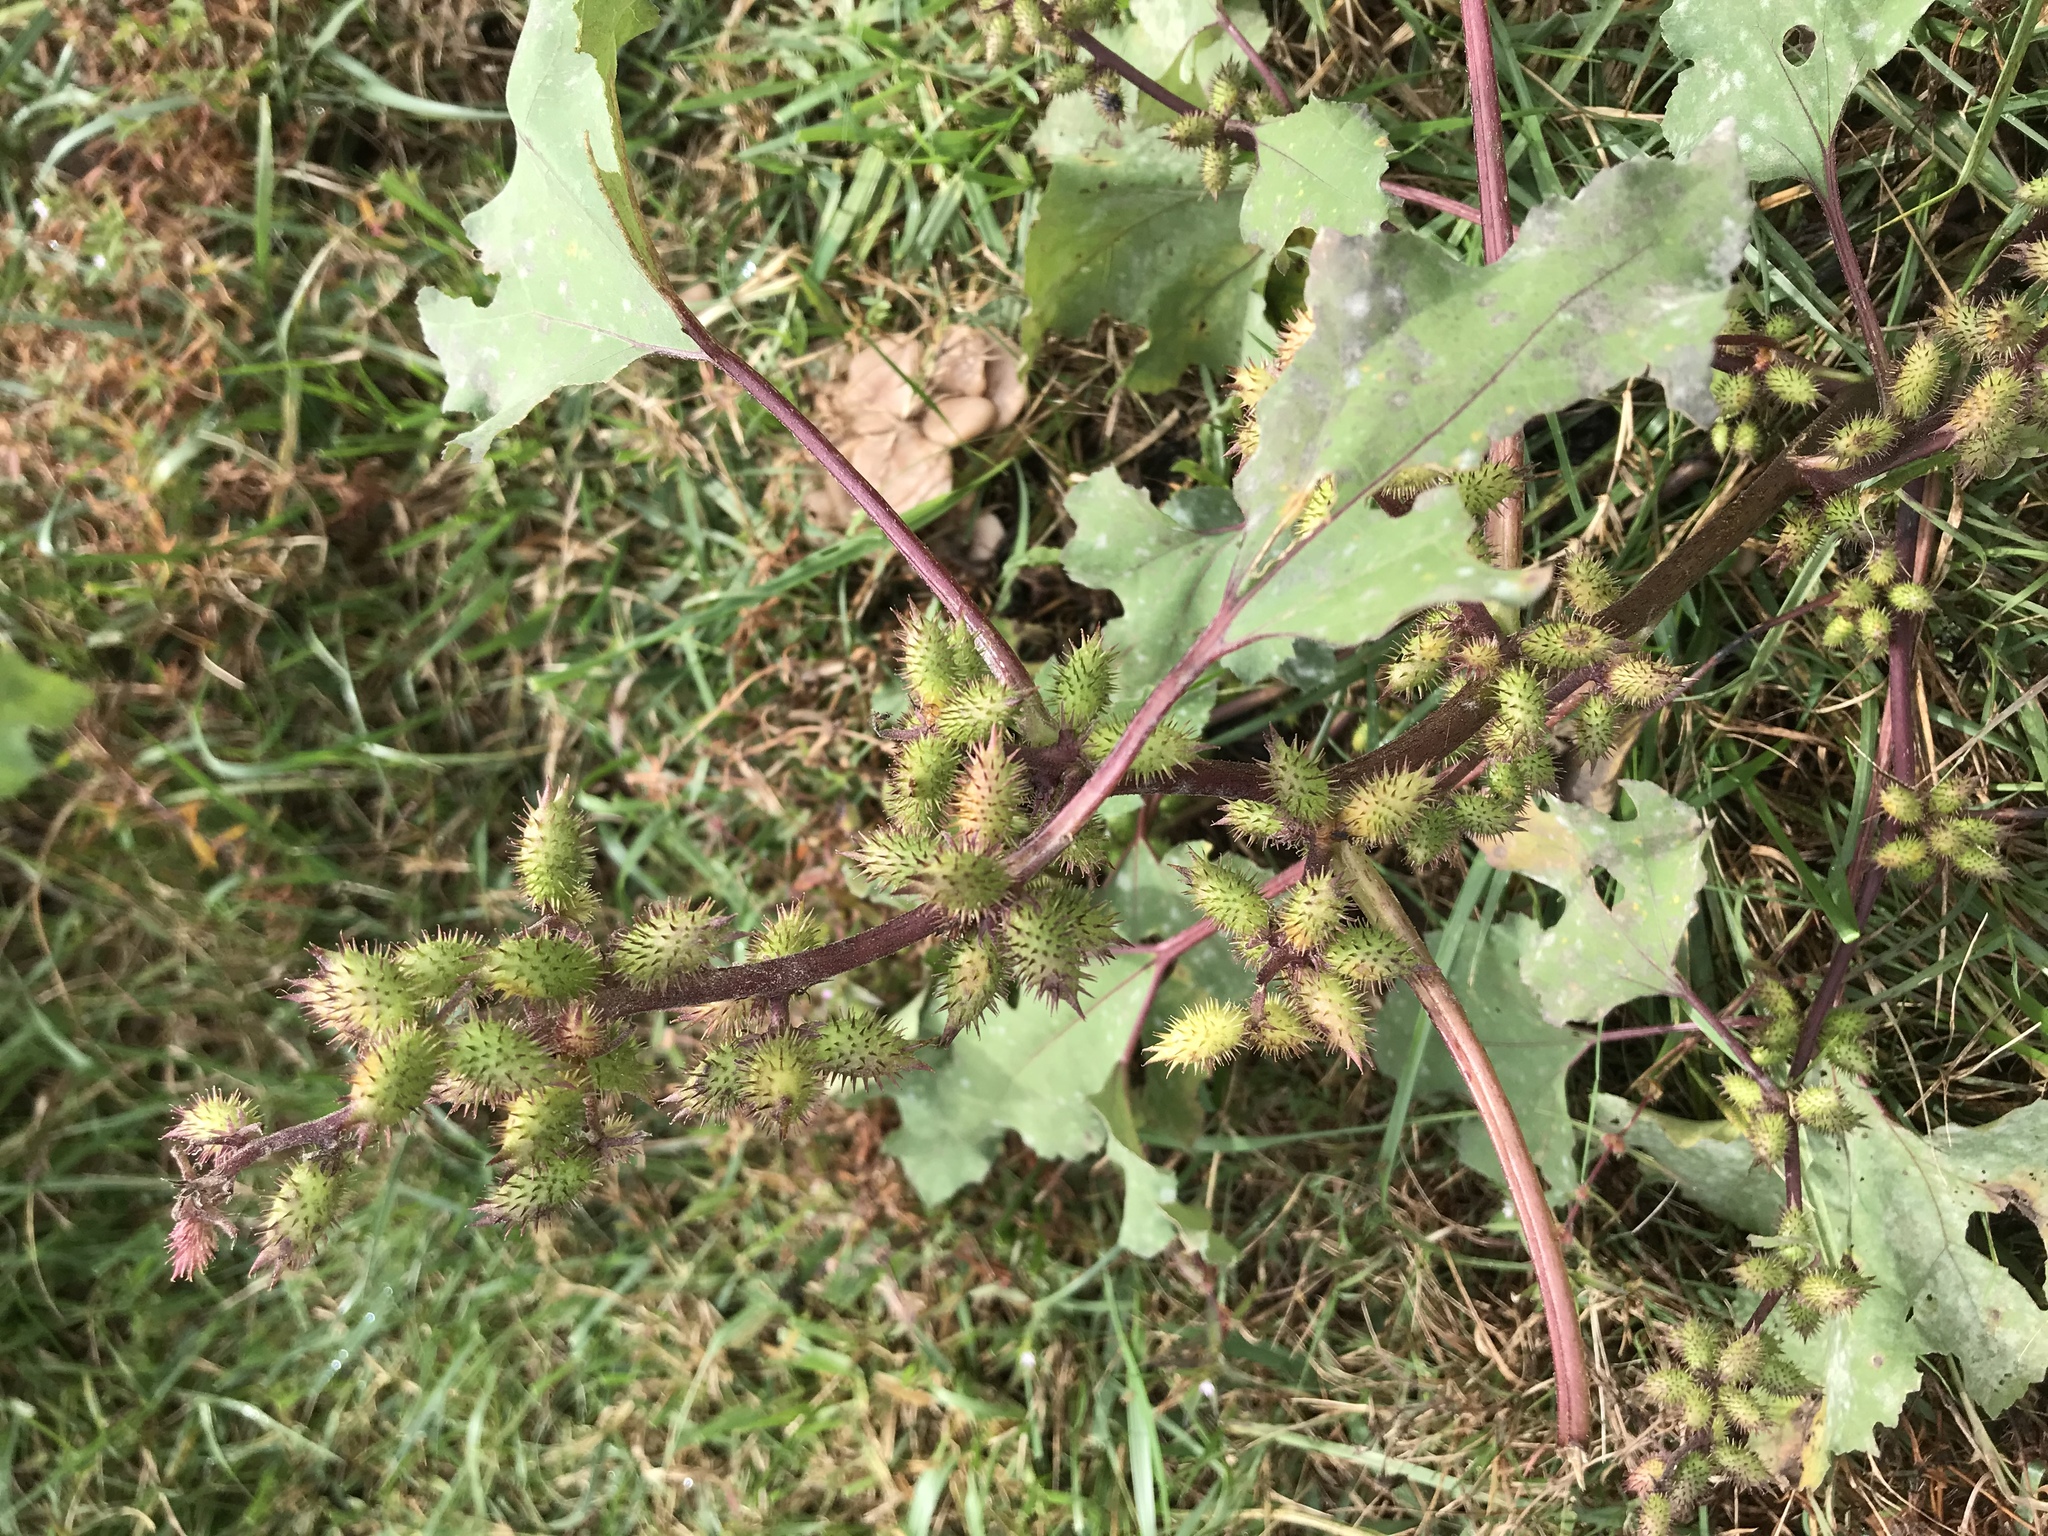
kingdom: Plantae
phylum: Tracheophyta
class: Magnoliopsida
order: Asterales
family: Asteraceae
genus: Xanthium
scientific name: Xanthium strumarium
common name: Rough cocklebur
